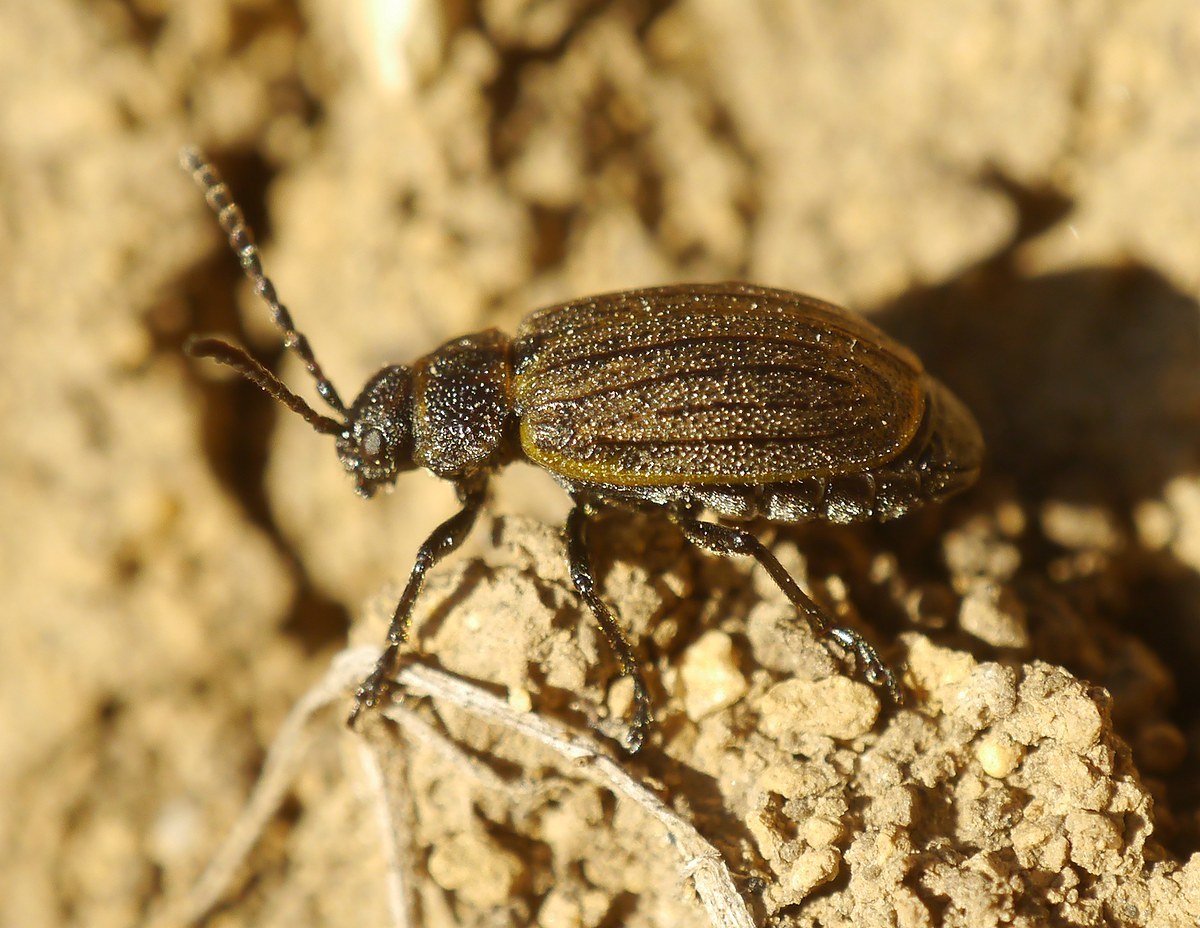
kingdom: Animalia
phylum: Arthropoda
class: Insecta
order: Coleoptera
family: Chrysomelidae
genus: Galeruca
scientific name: Galeruca pomonae
